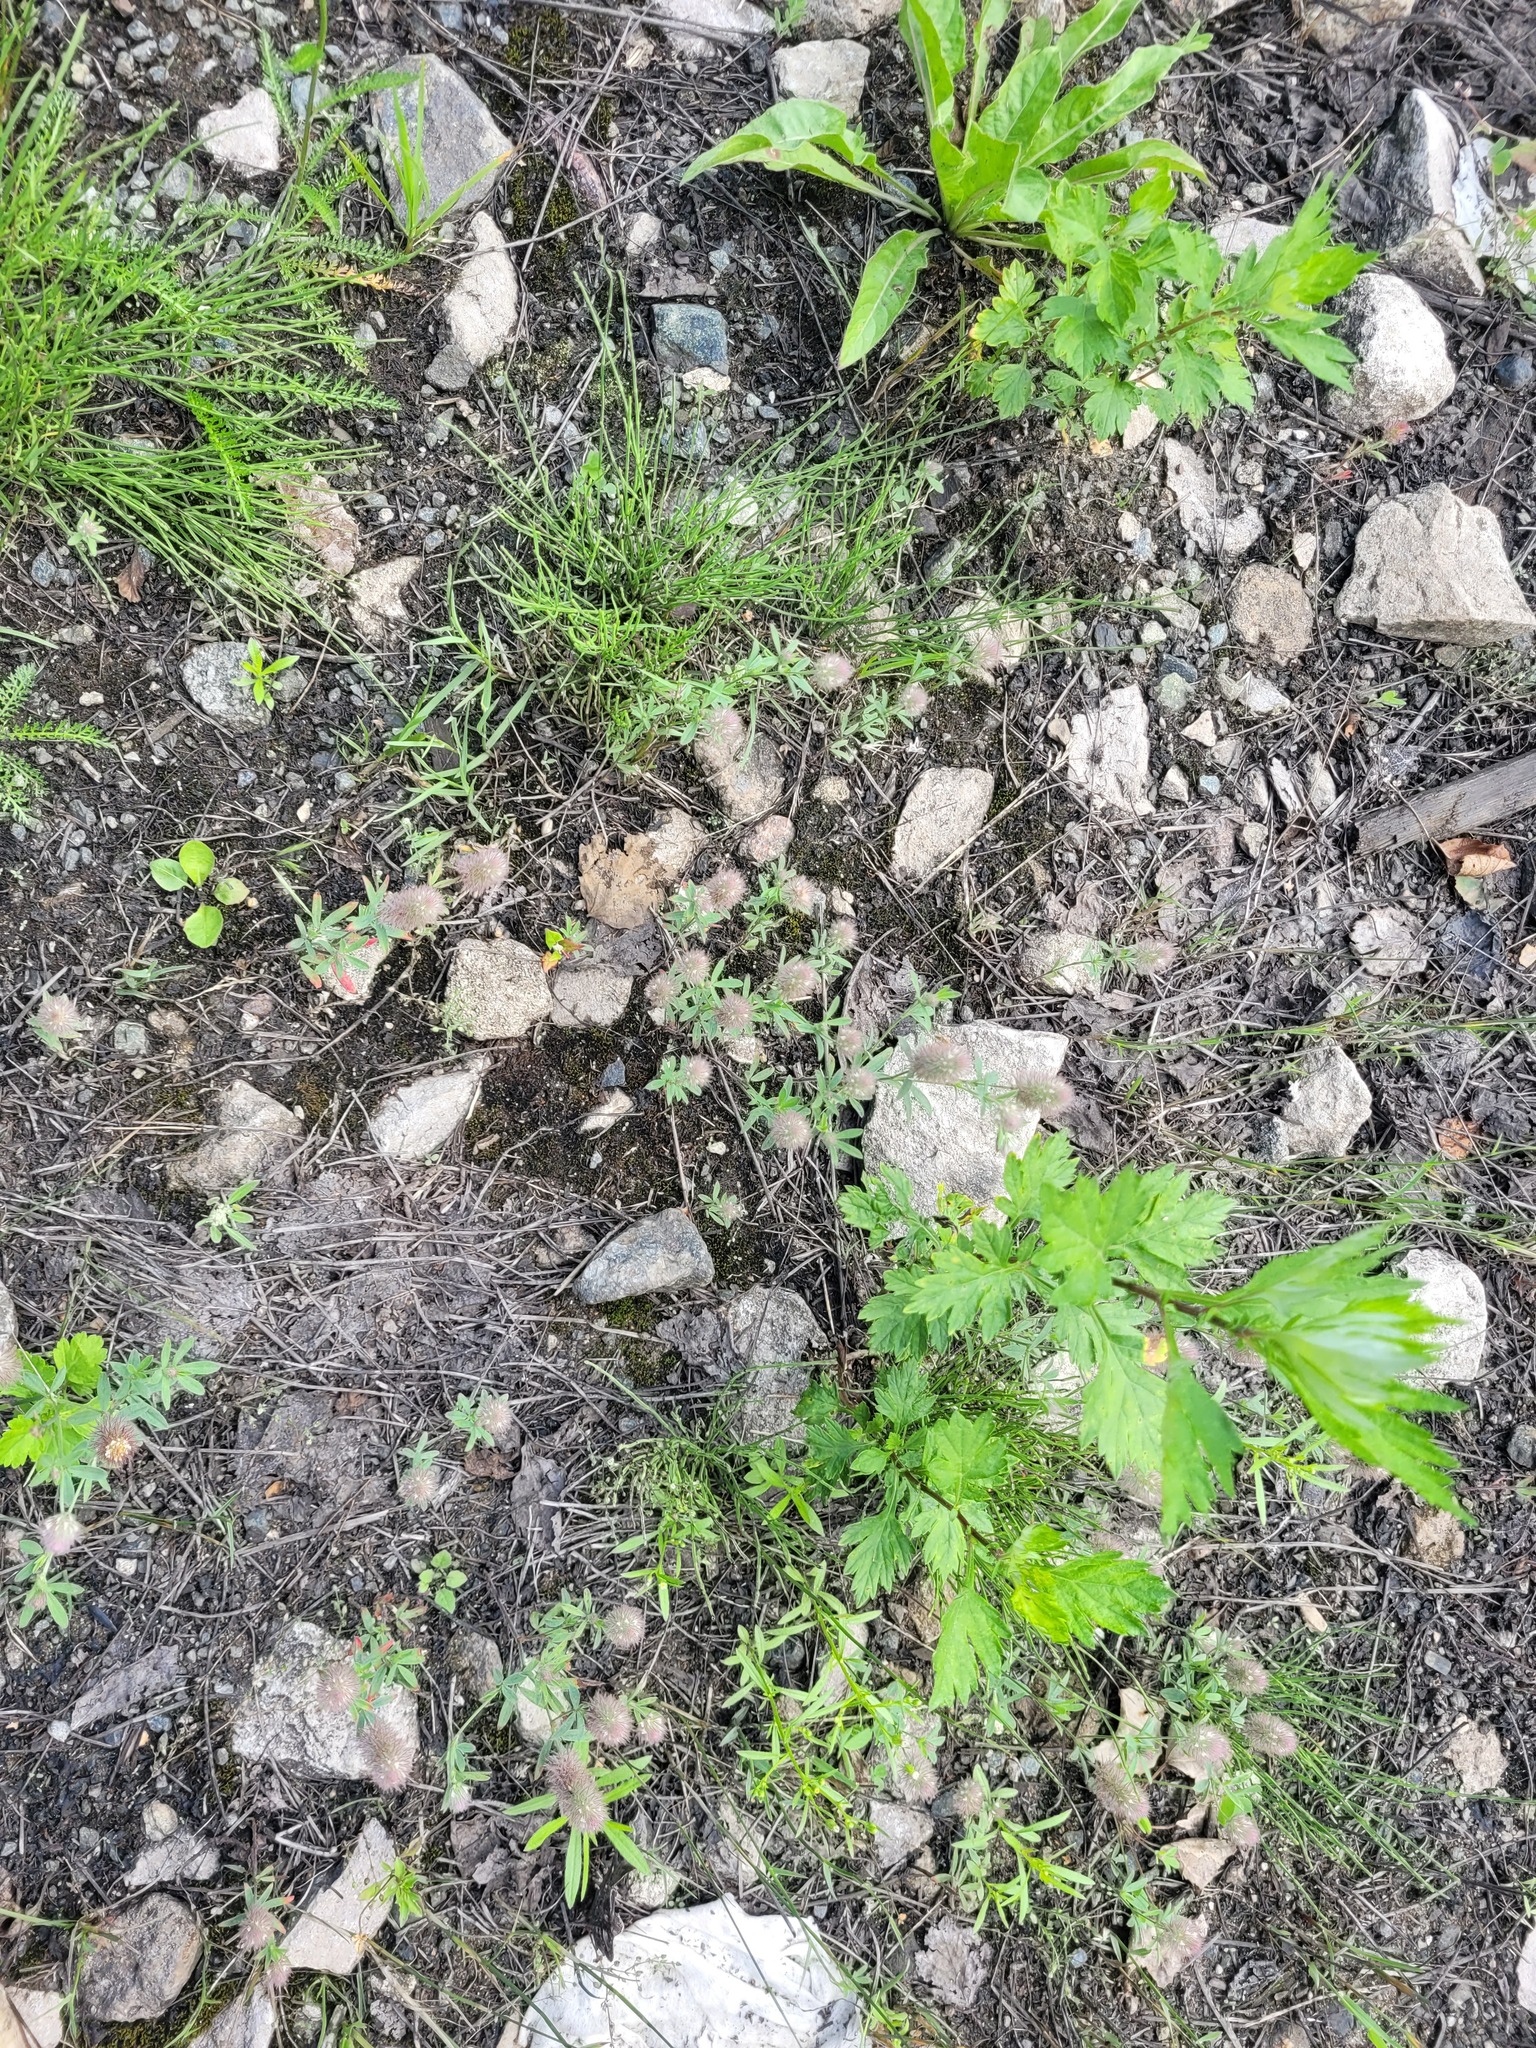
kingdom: Plantae
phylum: Tracheophyta
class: Magnoliopsida
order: Fabales
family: Fabaceae
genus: Trifolium
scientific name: Trifolium arvense
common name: Hare's-foot clover
